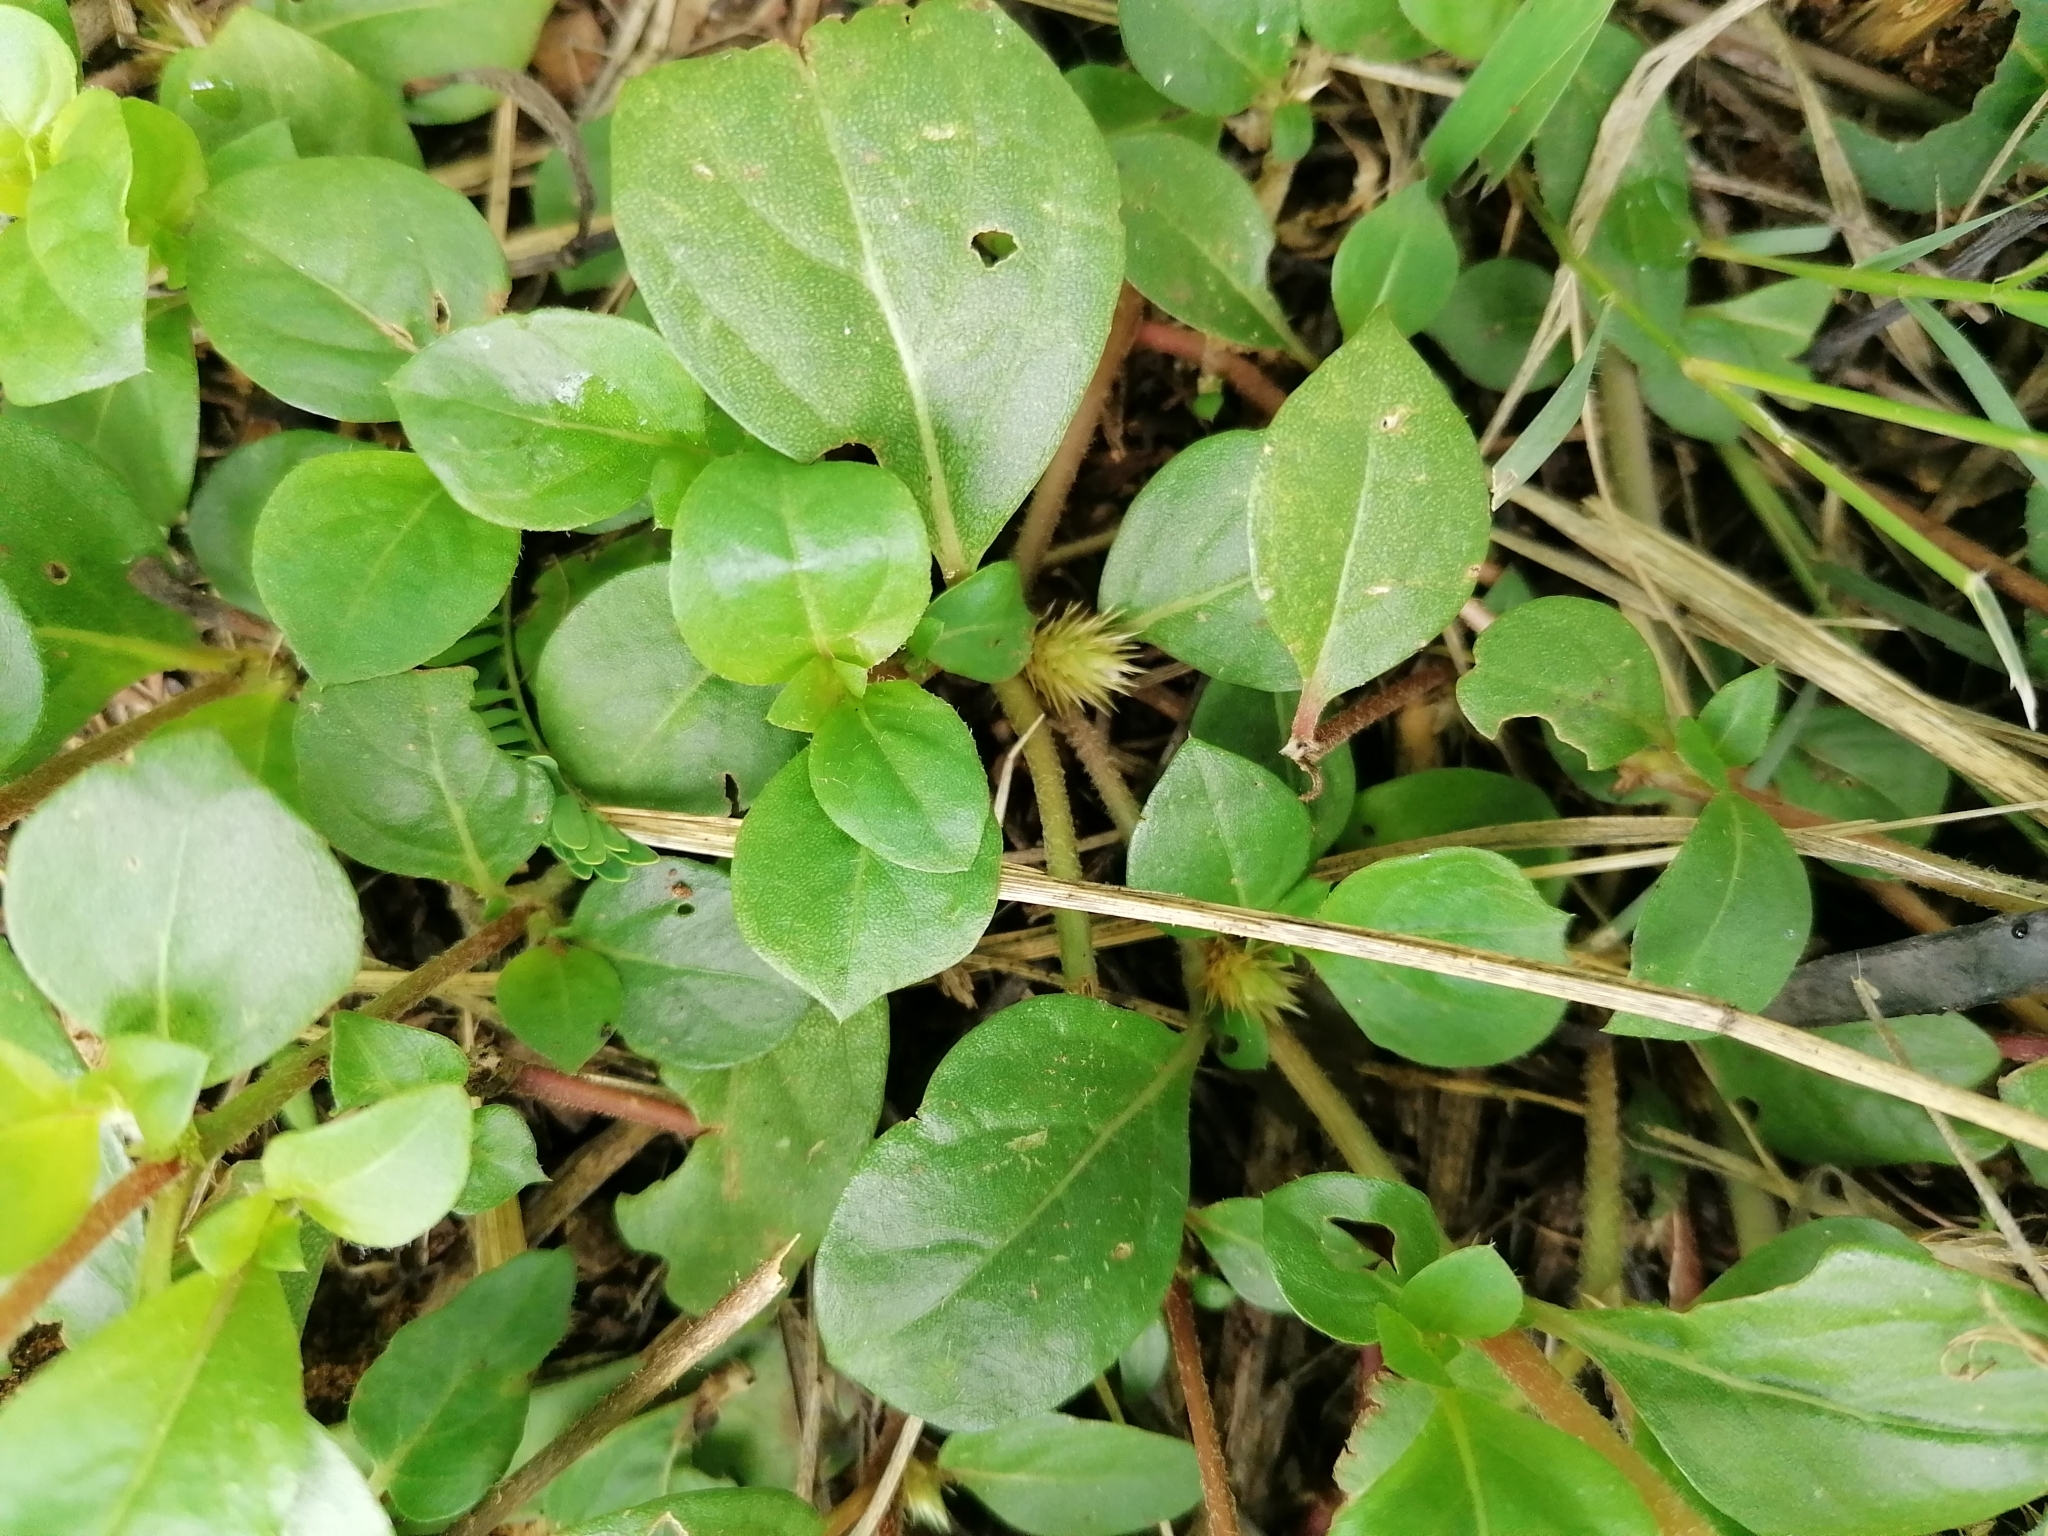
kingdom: Plantae
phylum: Tracheophyta
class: Magnoliopsida
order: Caryophyllales
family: Amaranthaceae
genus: Alternanthera
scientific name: Alternanthera pungens
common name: Khakiweed
